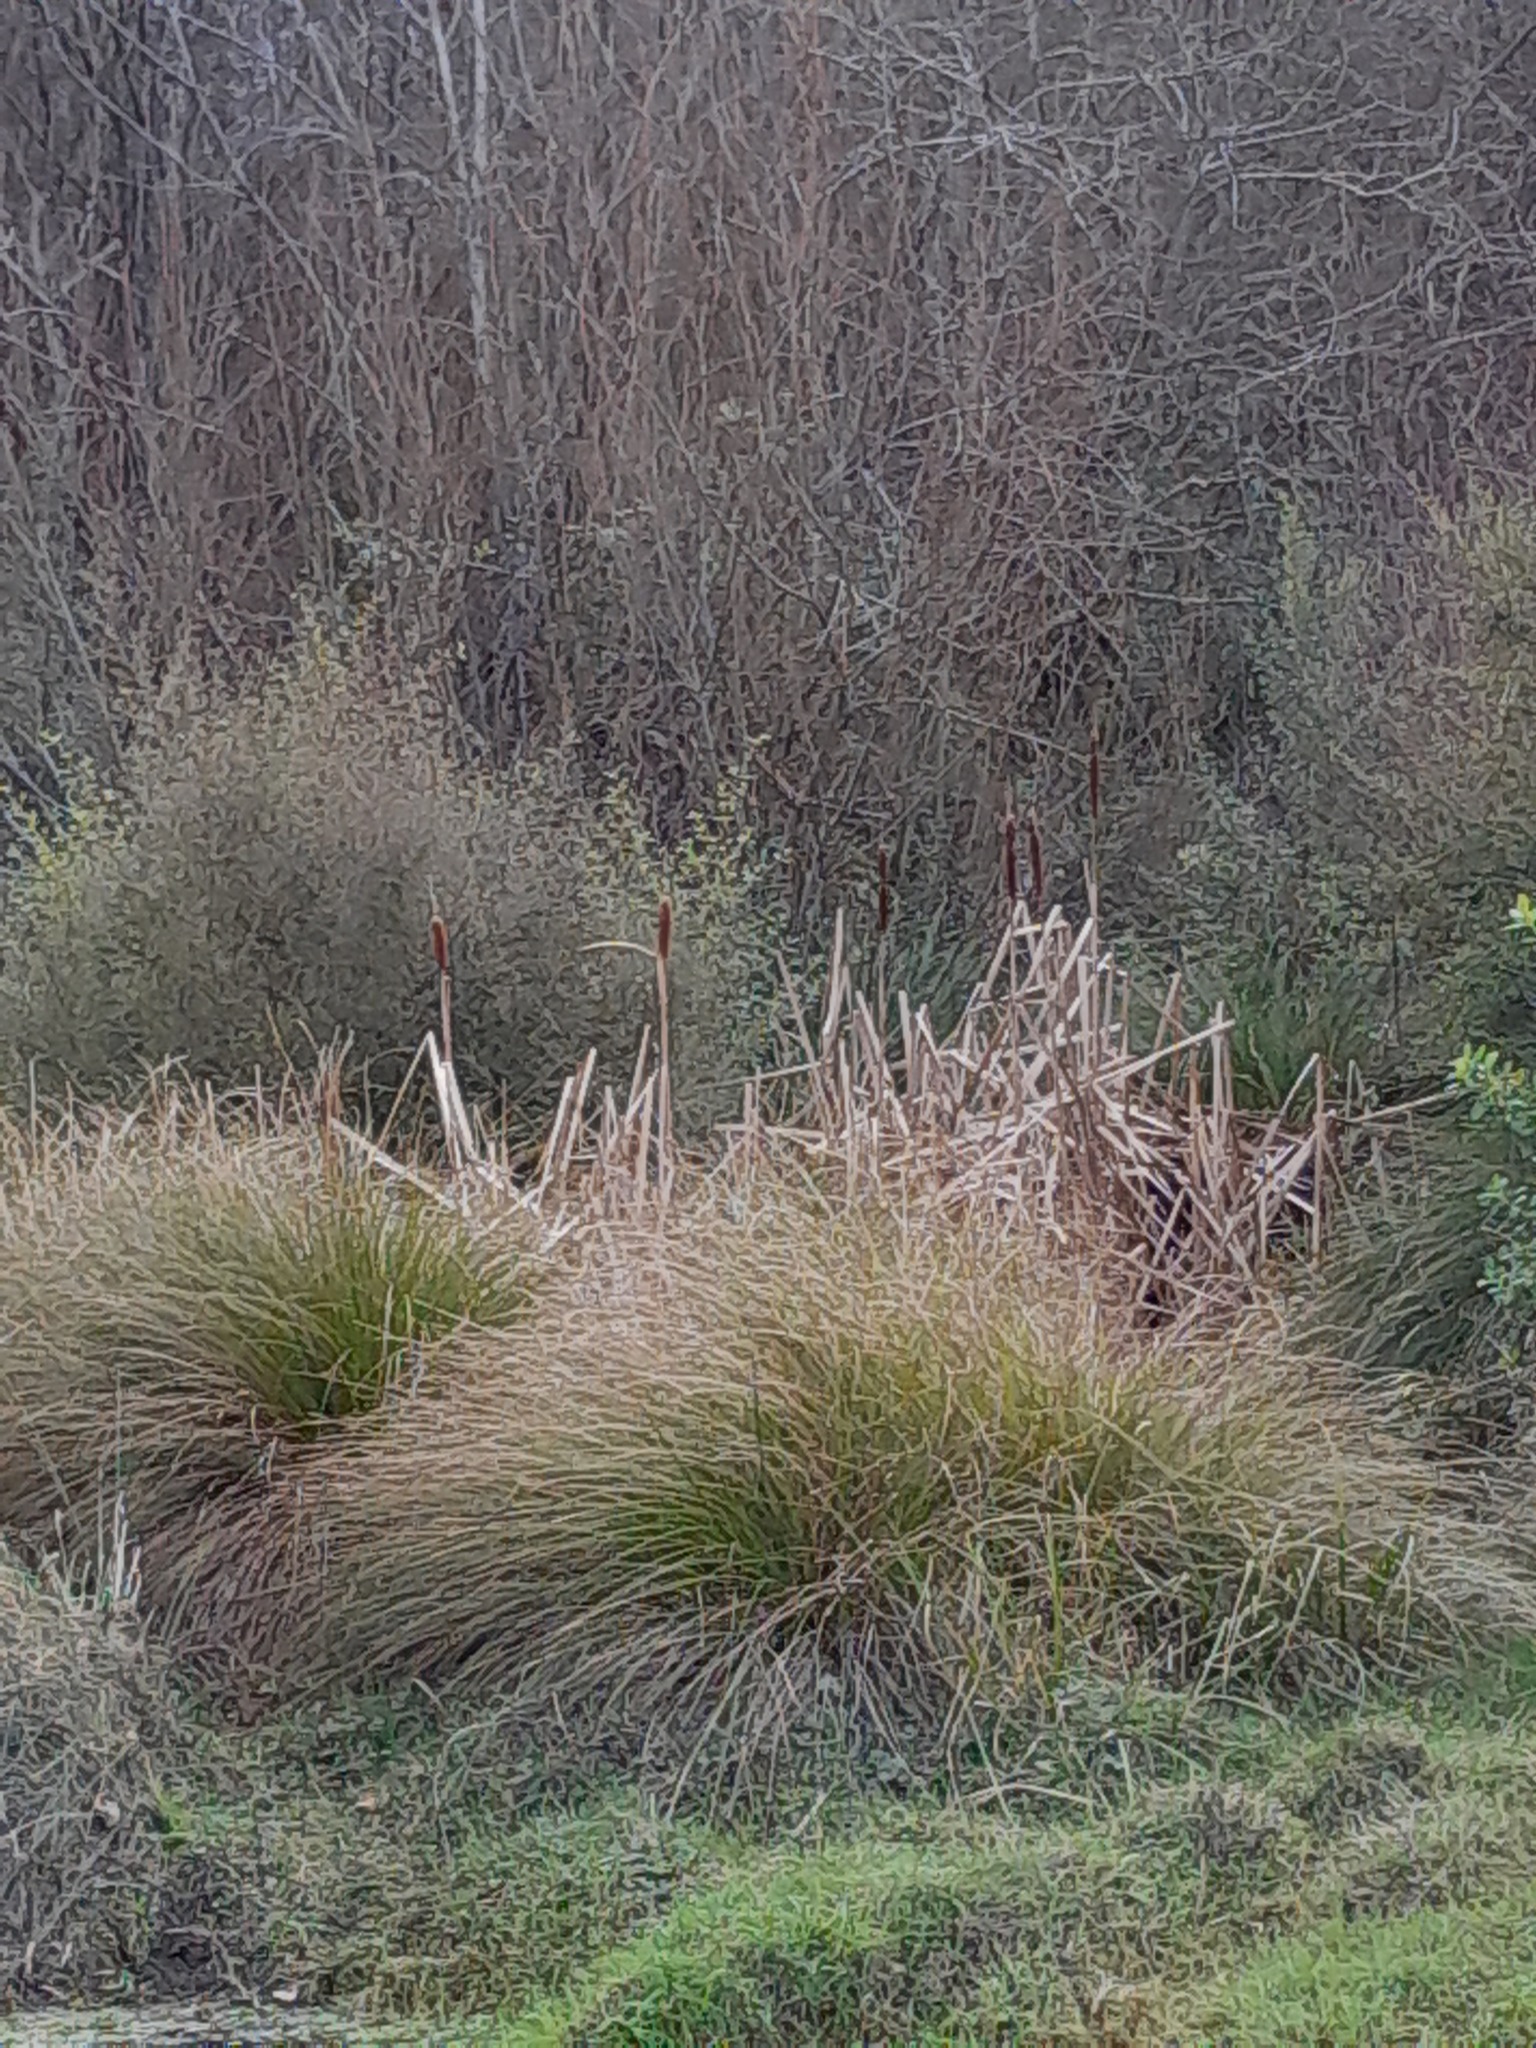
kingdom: Plantae
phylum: Tracheophyta
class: Liliopsida
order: Poales
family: Typhaceae
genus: Typha
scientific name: Typha orientalis
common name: Bullrush
